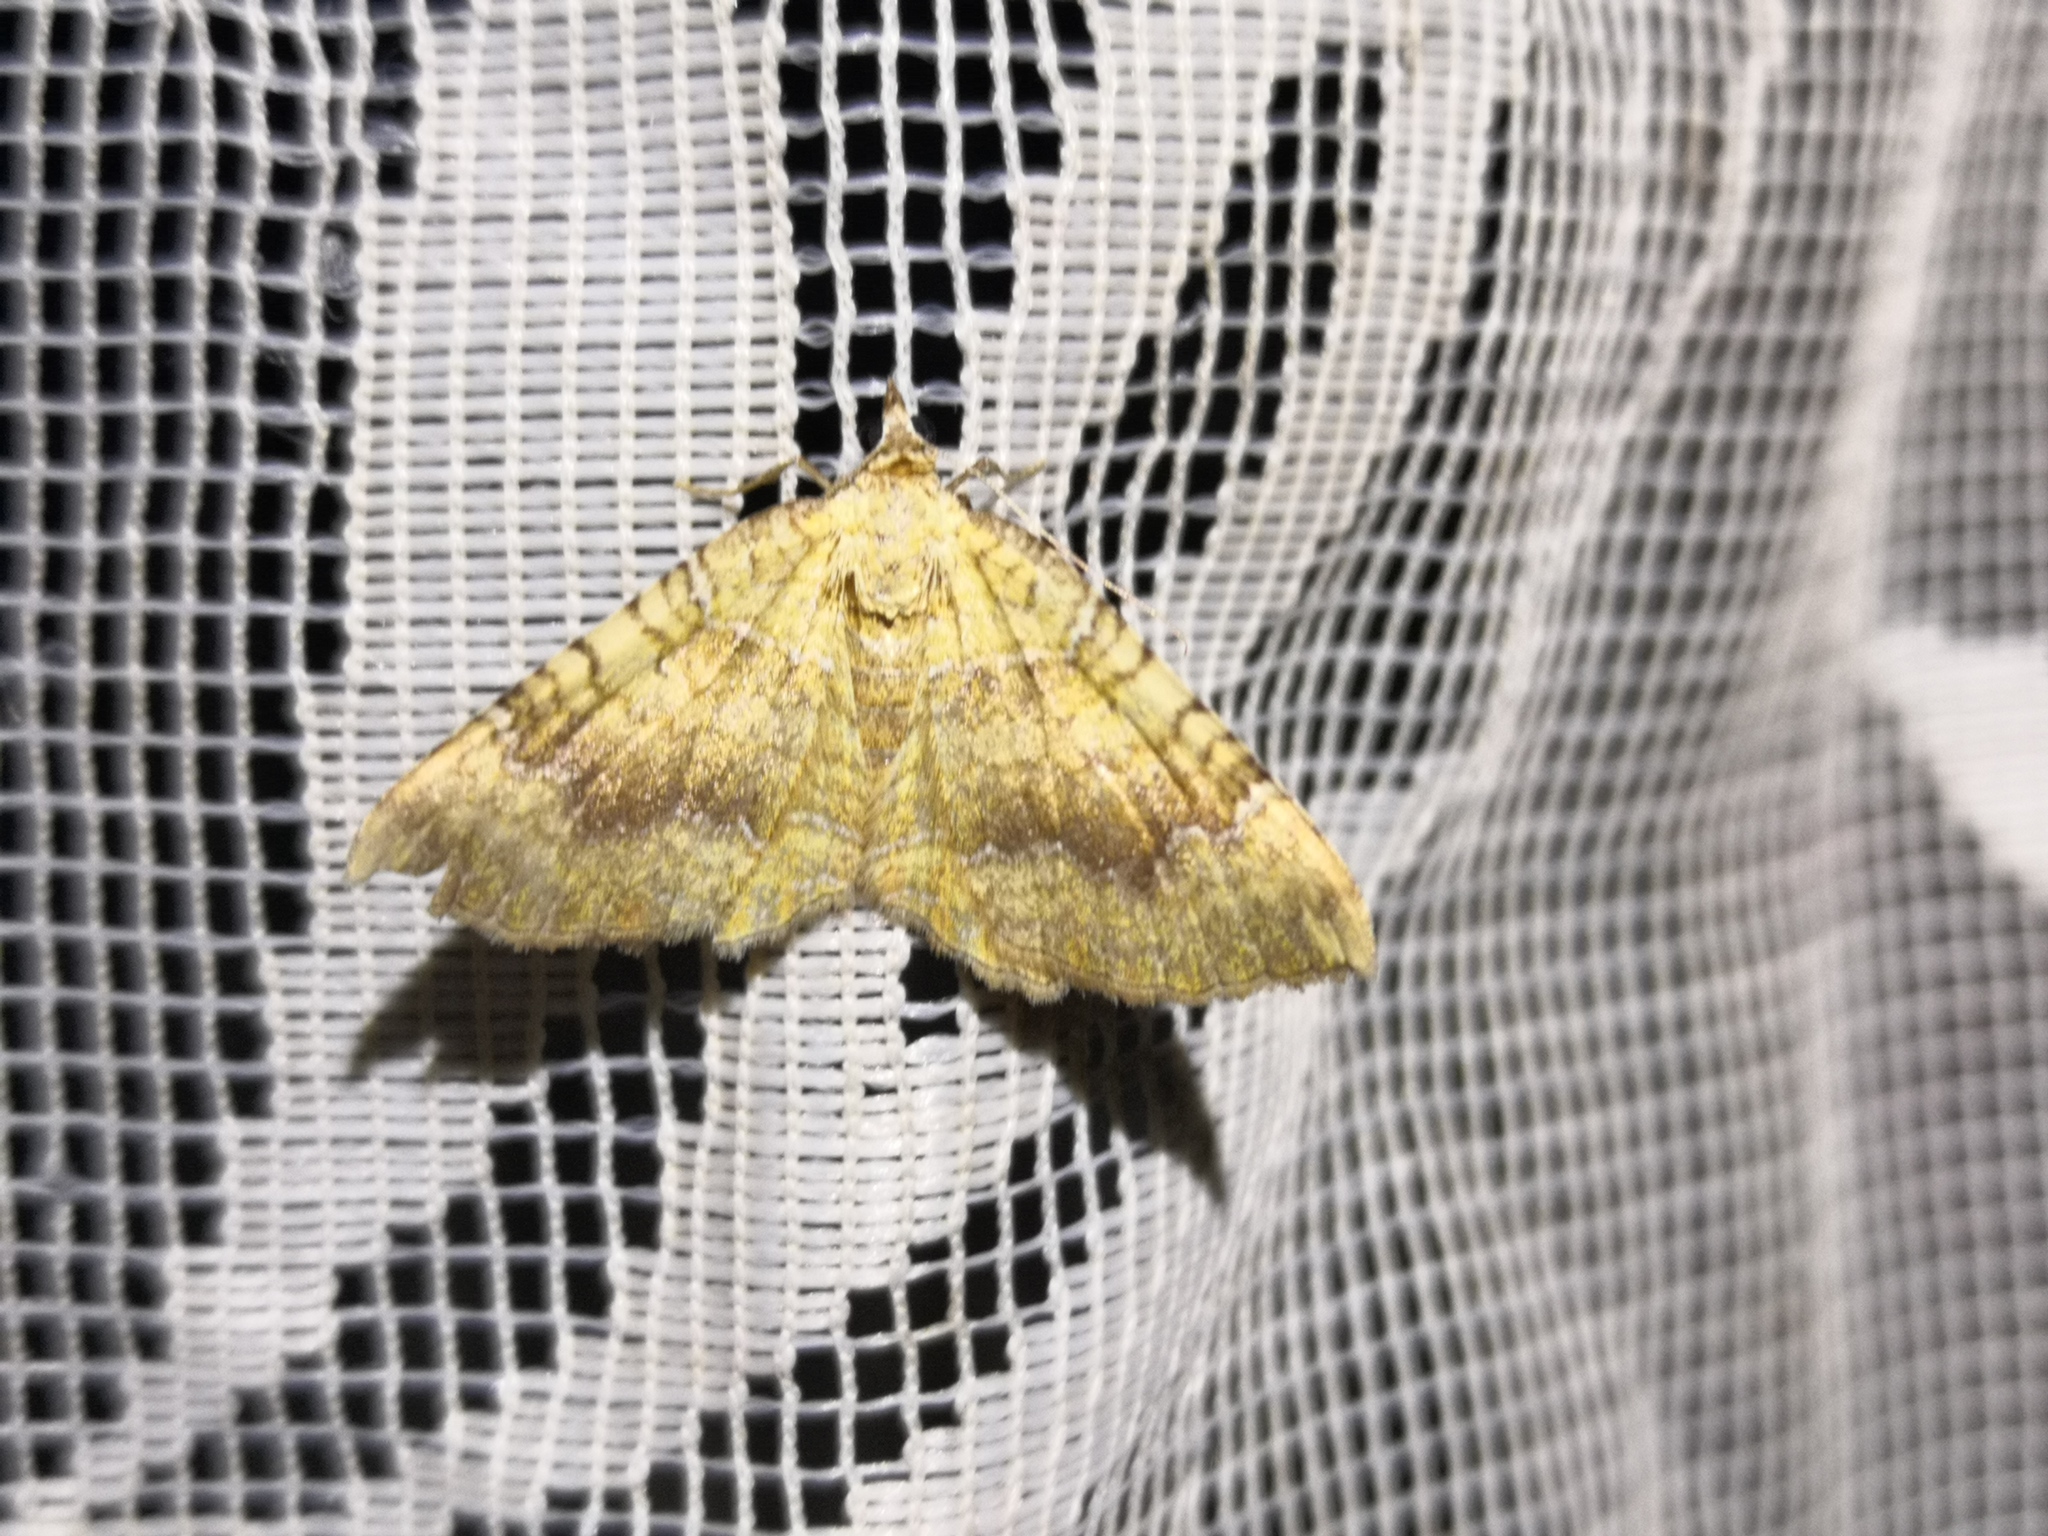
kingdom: Animalia
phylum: Arthropoda
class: Insecta
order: Lepidoptera
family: Geometridae
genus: Camptogramma
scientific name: Camptogramma bilineata
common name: Yellow shell
